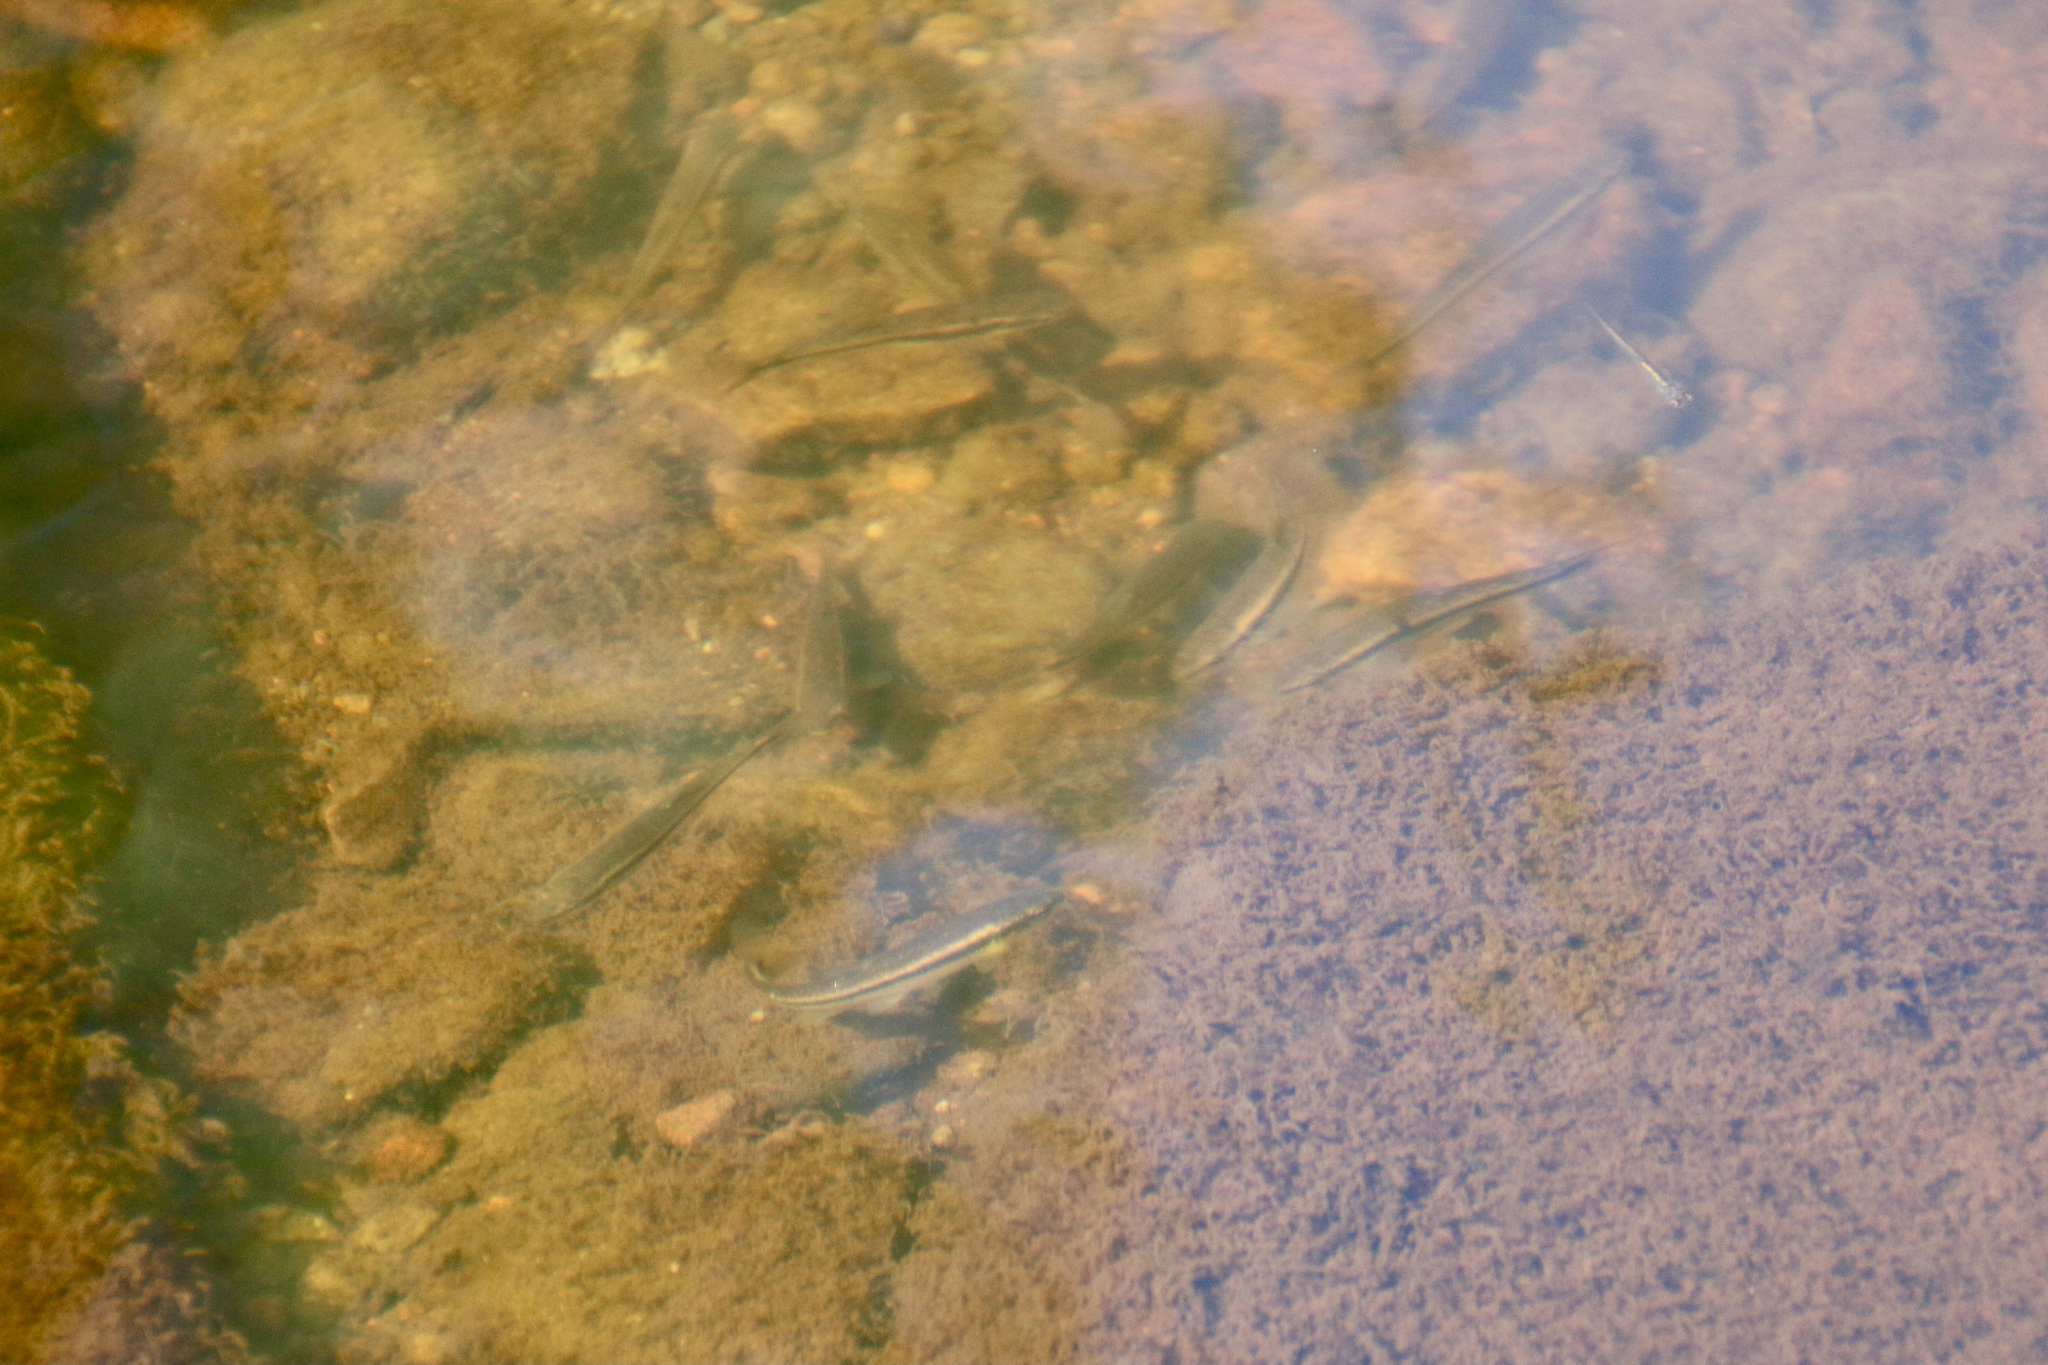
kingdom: Animalia
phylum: Chordata
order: Cypriniformes
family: Cyprinidae
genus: Rhinichthys
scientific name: Rhinichthys obtusus
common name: Western blacknose dace
